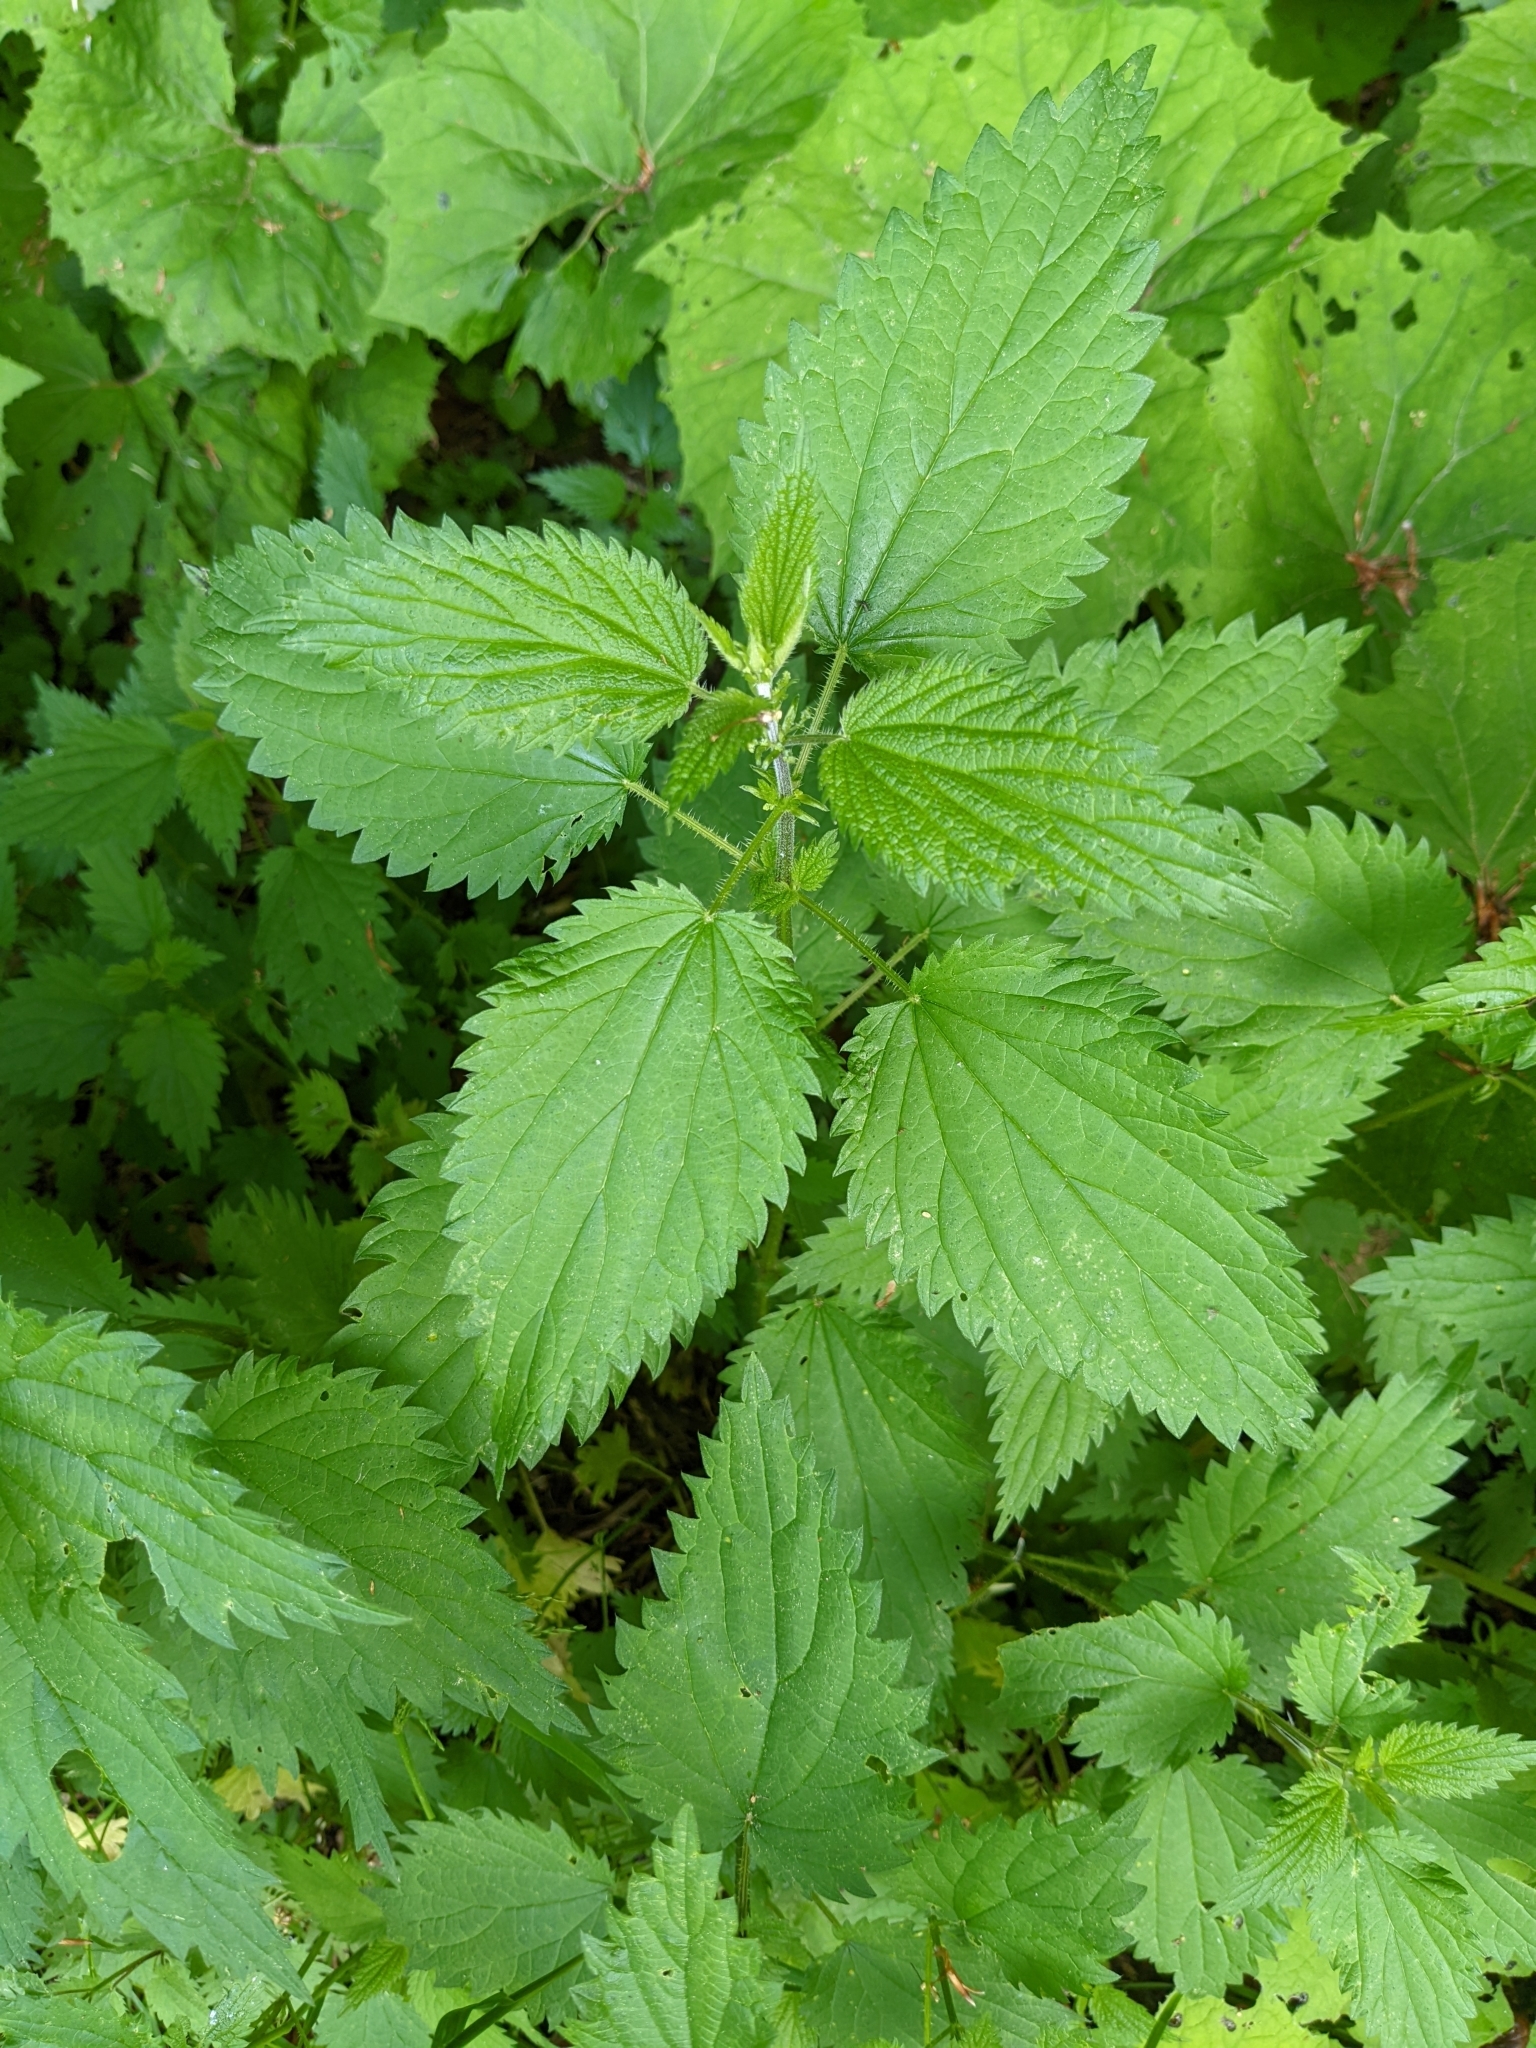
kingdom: Plantae
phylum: Tracheophyta
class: Magnoliopsida
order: Rosales
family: Urticaceae
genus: Urtica
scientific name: Urtica dioica
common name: Common nettle
